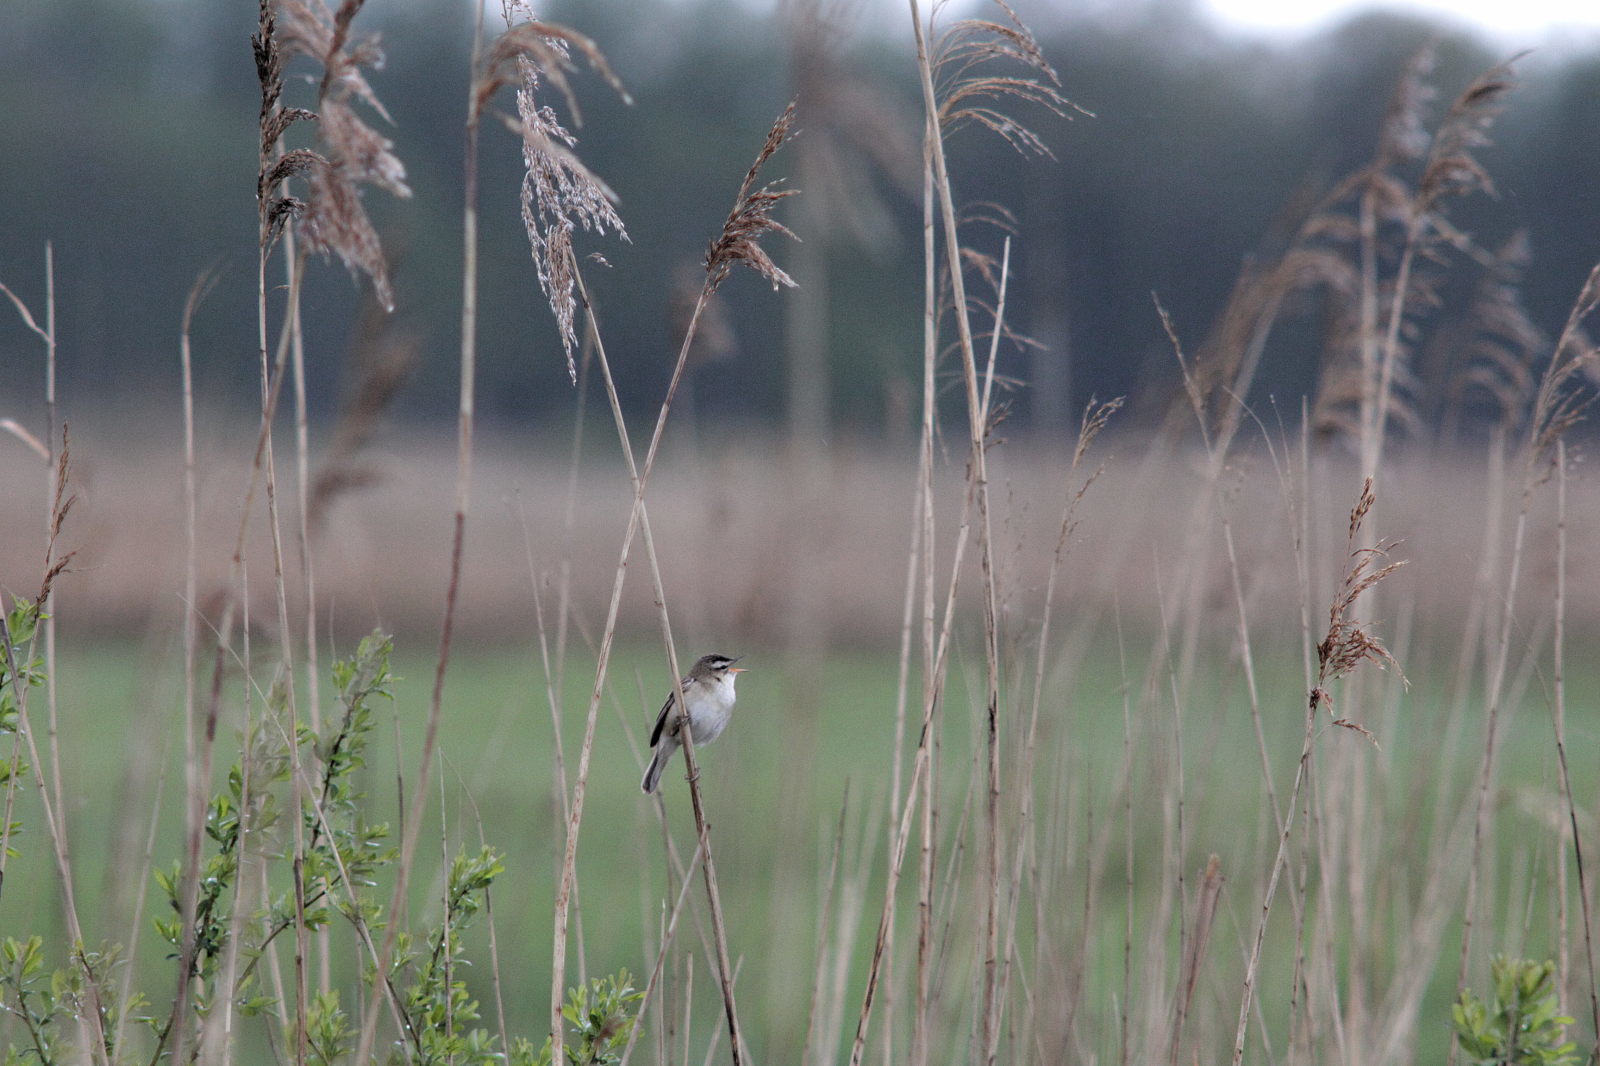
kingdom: Animalia
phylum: Chordata
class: Aves
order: Passeriformes
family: Acrocephalidae
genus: Acrocephalus
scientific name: Acrocephalus schoenobaenus
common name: Sedge warbler
